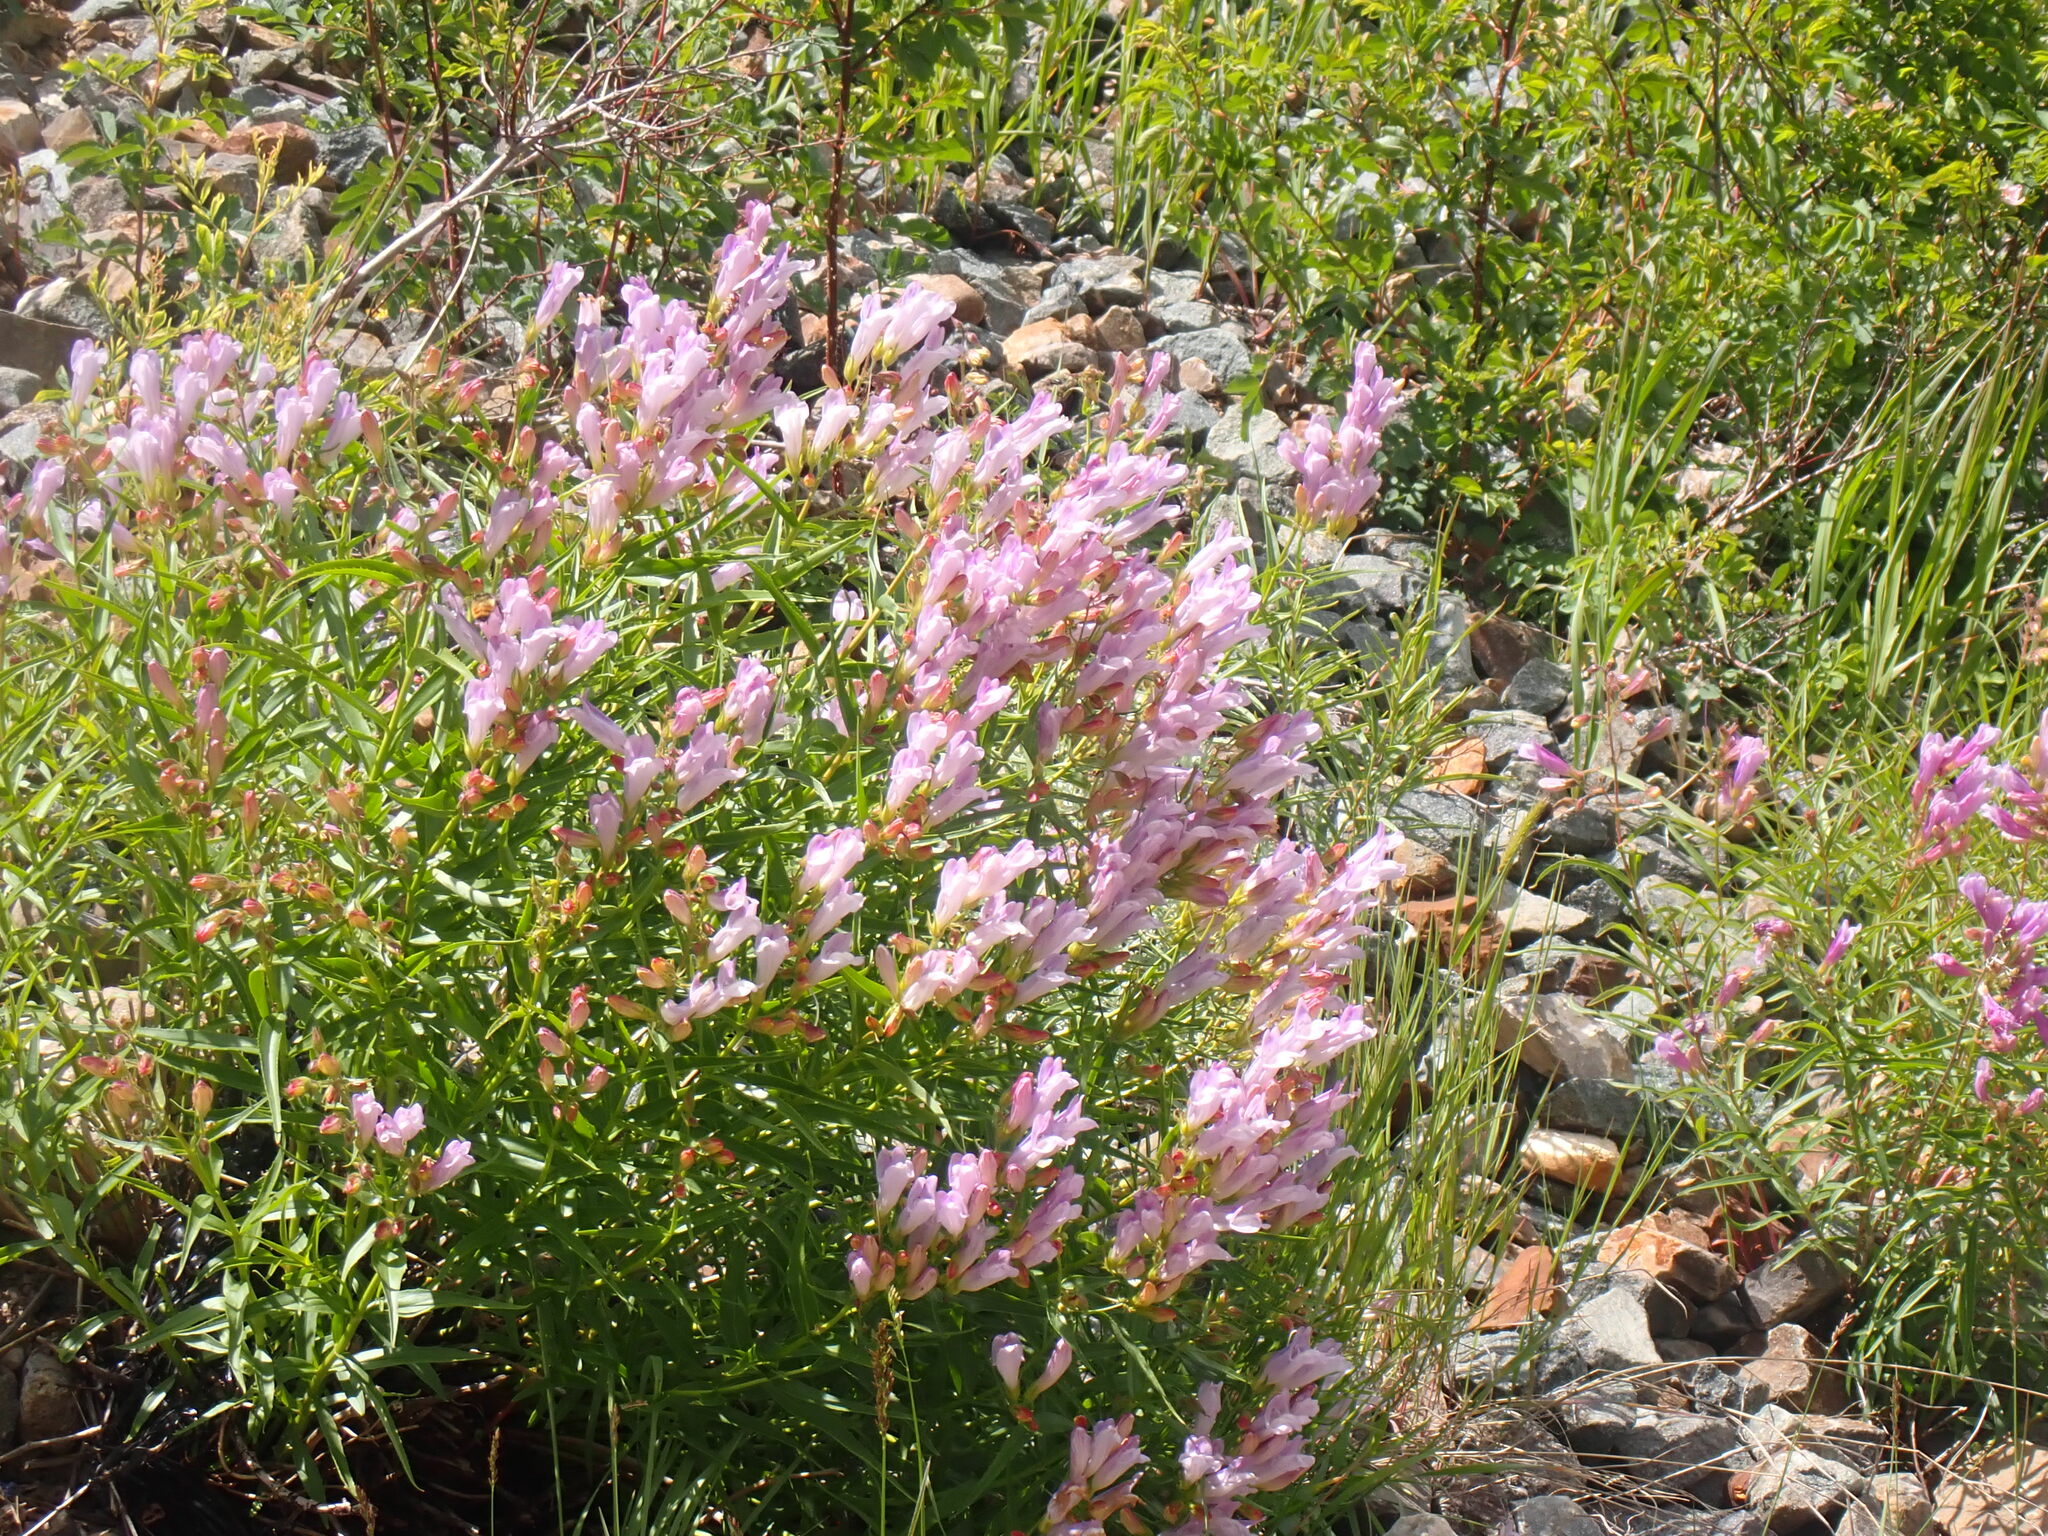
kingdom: Plantae
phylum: Tracheophyta
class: Magnoliopsida
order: Lamiales
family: Plantaginaceae
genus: Penstemon
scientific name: Penstemon lyalli
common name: Lyall's beardtongue
